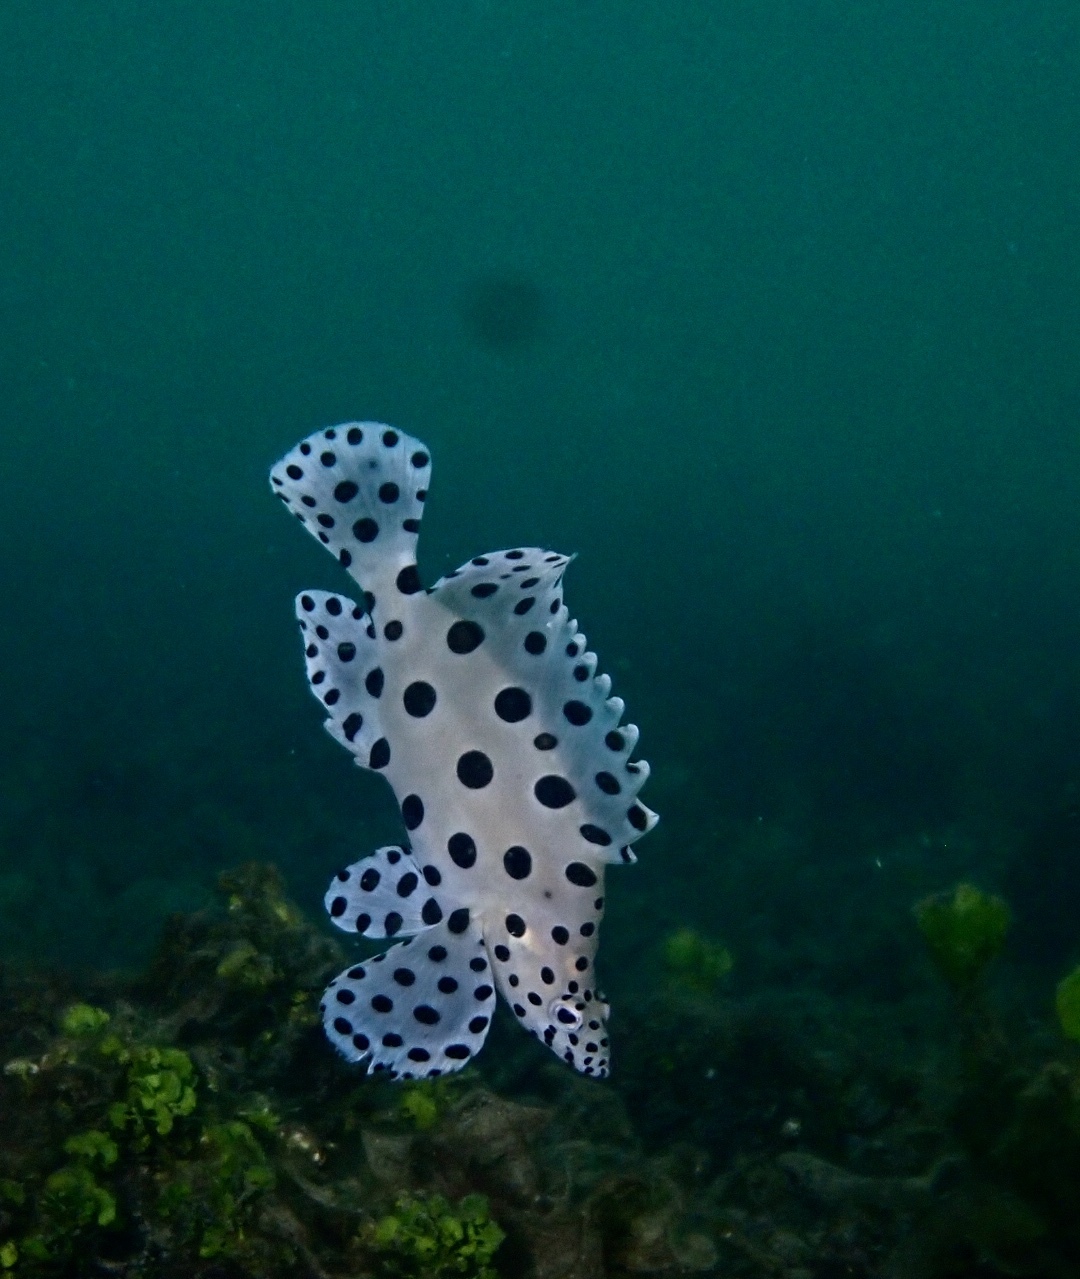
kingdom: Animalia
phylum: Chordata
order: Perciformes
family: Serranidae
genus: Cromileptes
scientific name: Cromileptes altivelis
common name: Humpback grouper
